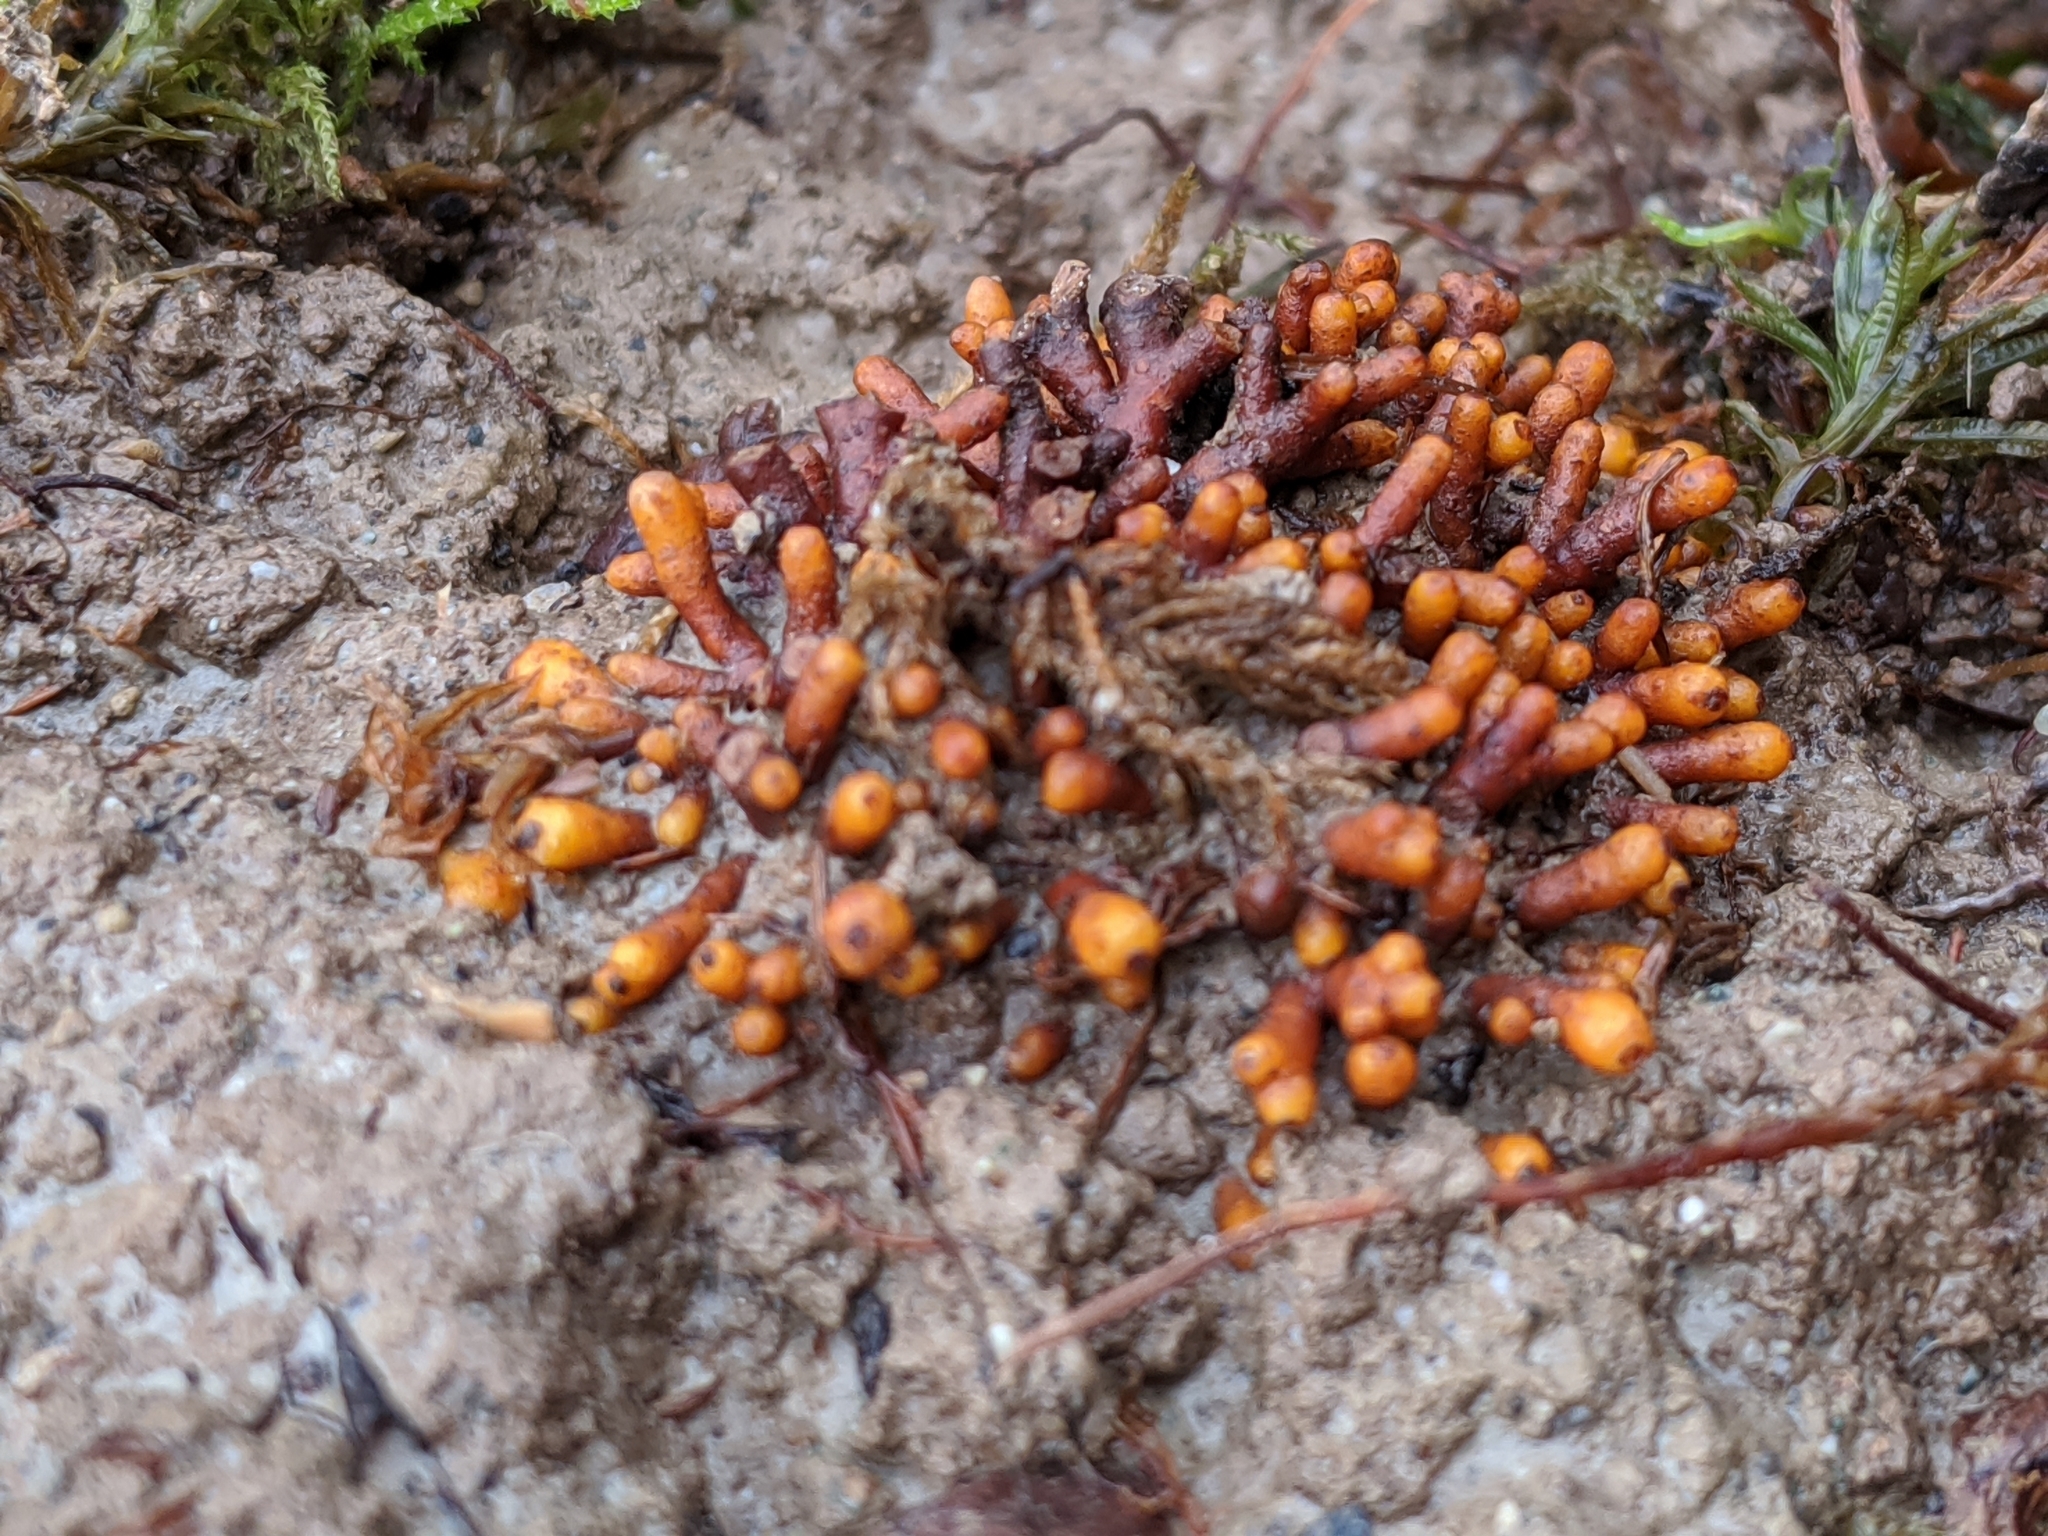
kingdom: Bacteria
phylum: Actinobacteriota
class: Actinomycetia
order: Mycobacteriales
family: Frankiaceae
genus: Frankia
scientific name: Frankia alni
